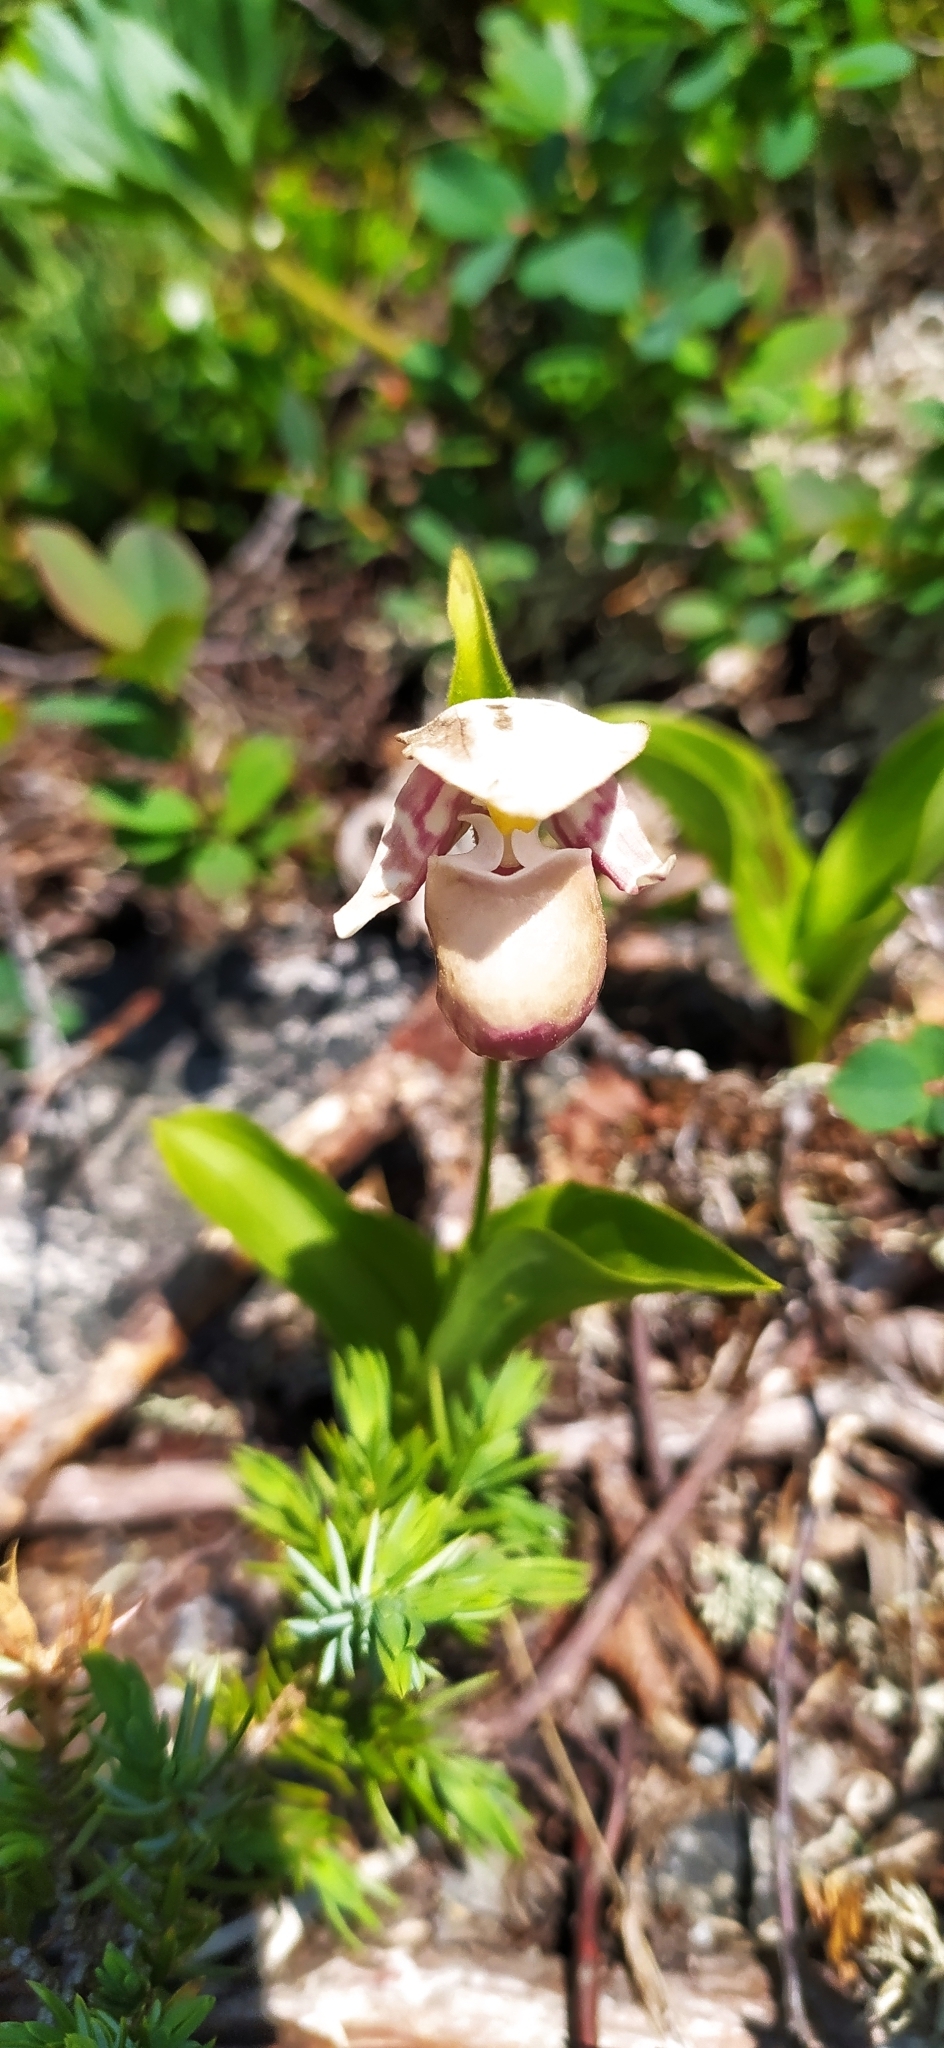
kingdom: Plantae
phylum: Tracheophyta
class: Liliopsida
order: Asparagales
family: Orchidaceae
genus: Cypripedium
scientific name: Cypripedium guttatum
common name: Pink lady slipper
